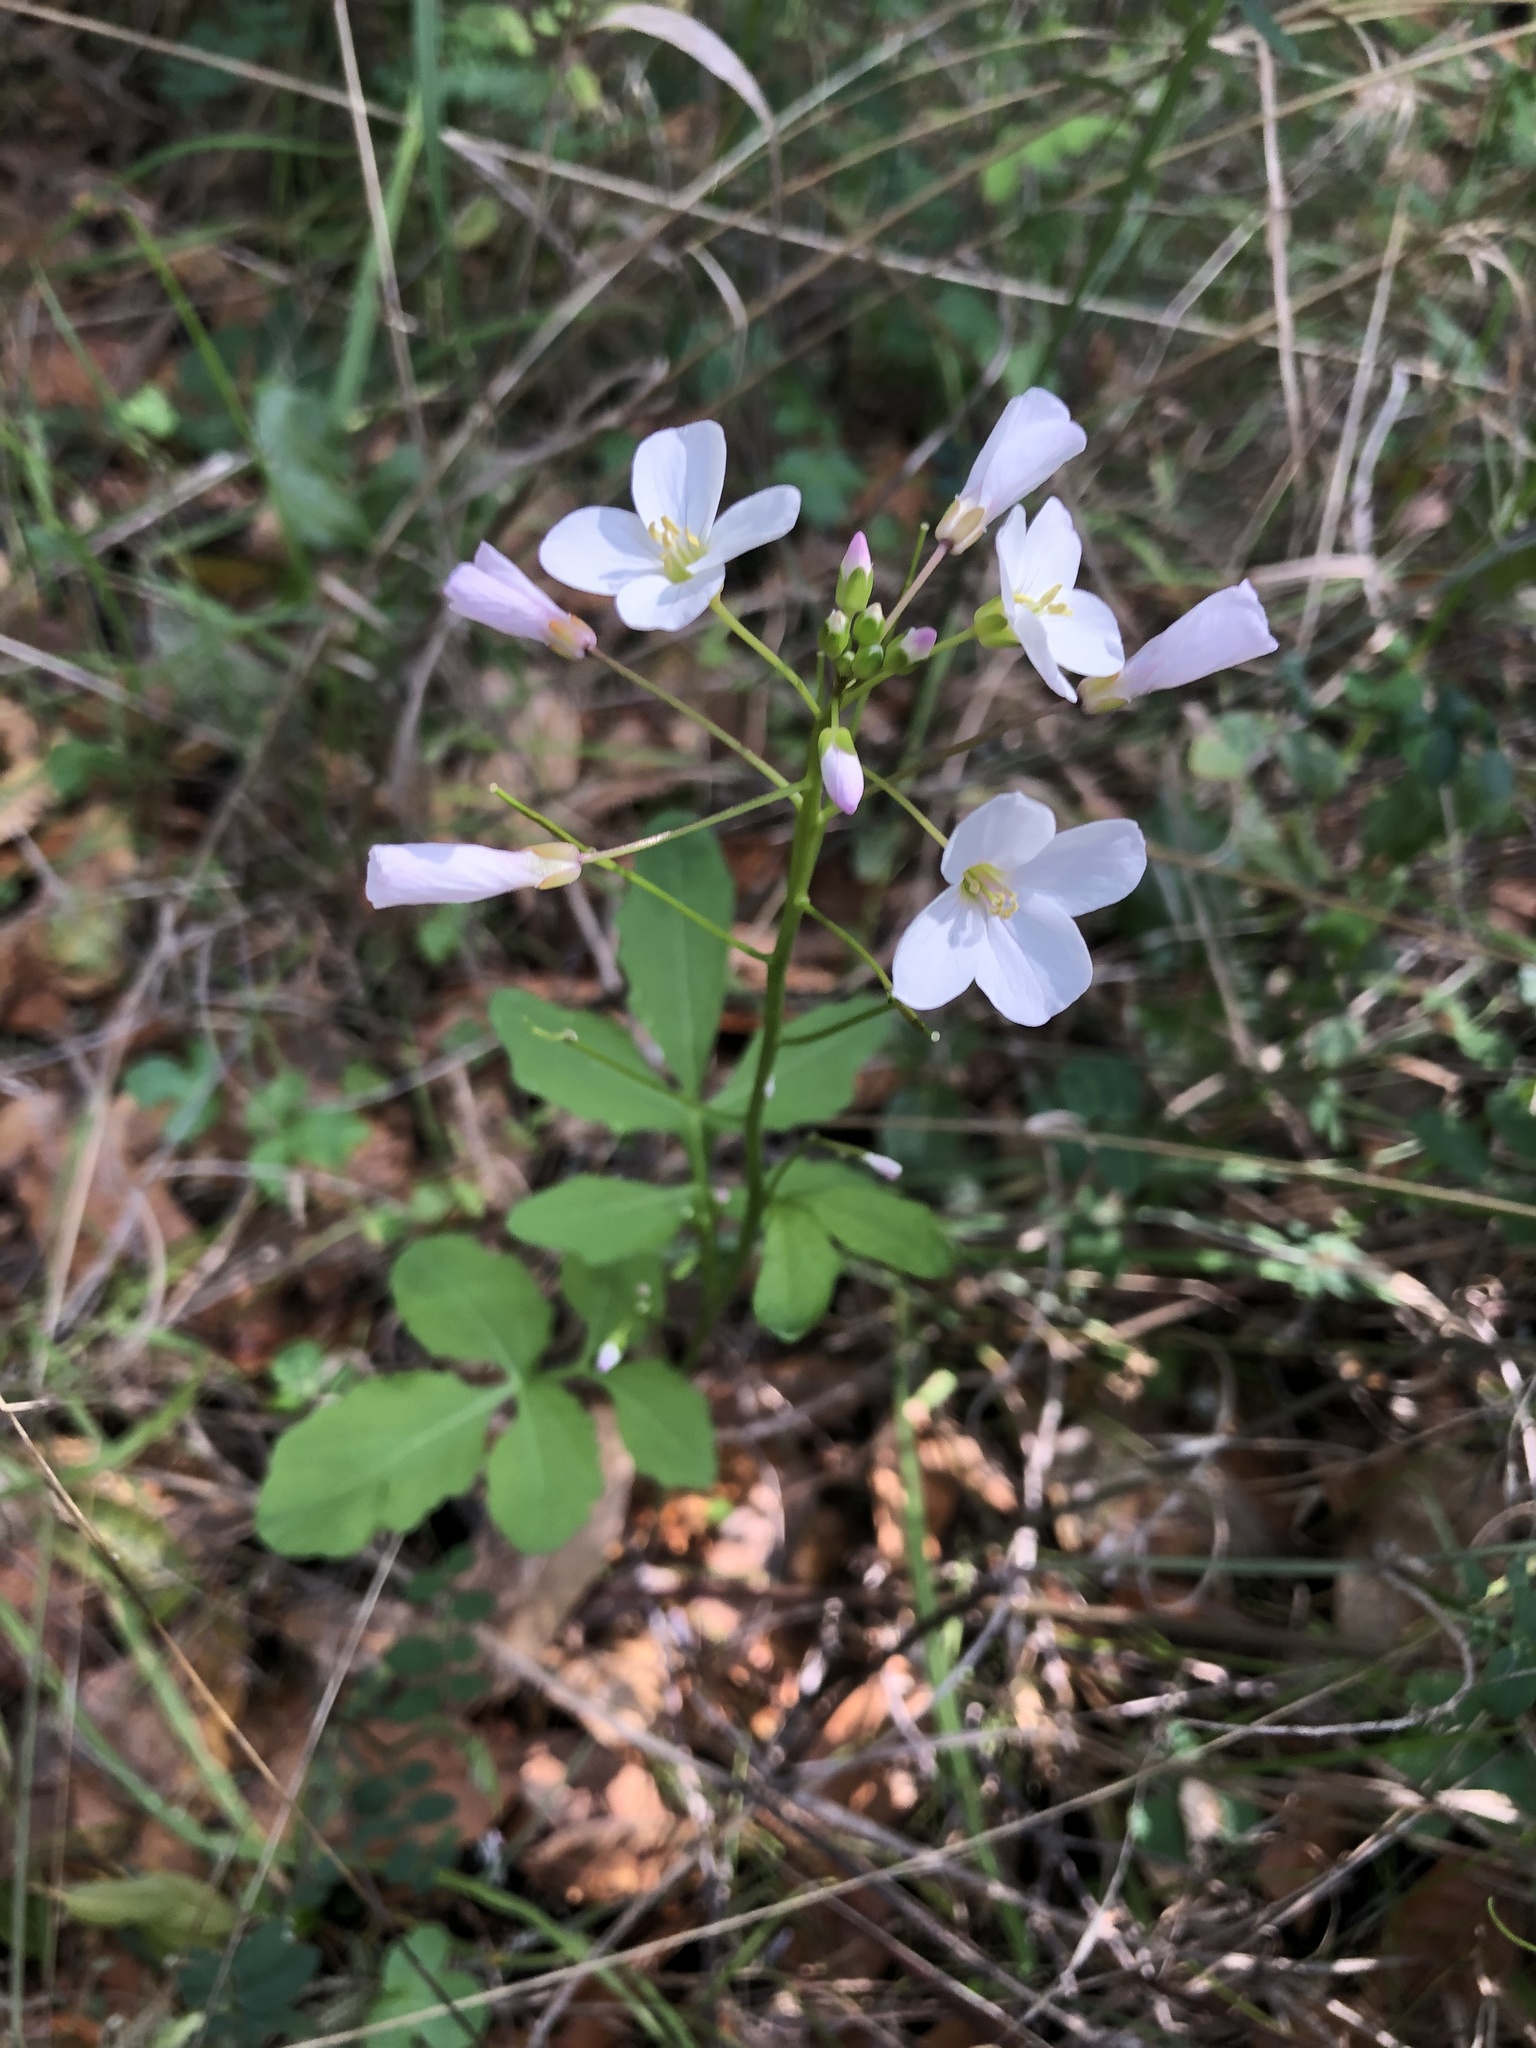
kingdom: Plantae
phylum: Tracheophyta
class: Magnoliopsida
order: Brassicales
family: Brassicaceae
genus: Cardamine
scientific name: Cardamine californica
